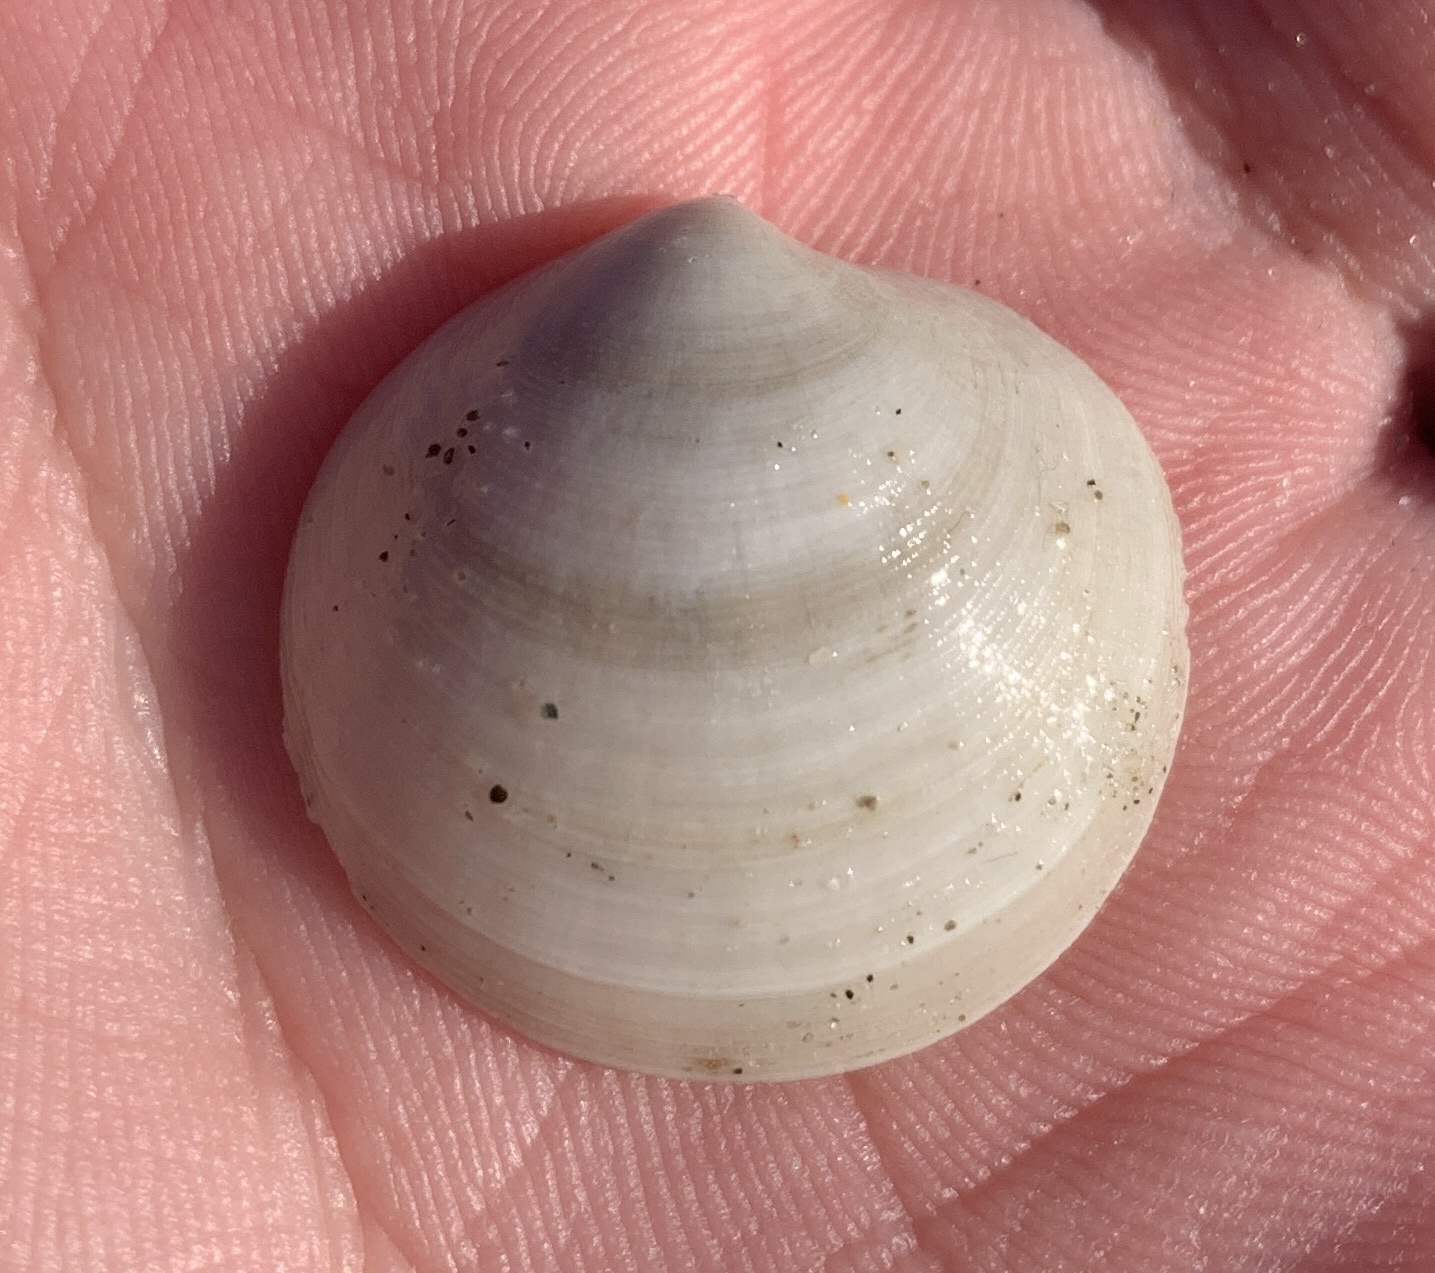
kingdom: Animalia
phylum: Mollusca
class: Bivalvia
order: Lucinida
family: Lucinidae
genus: Callucina
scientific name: Callucina keenae
